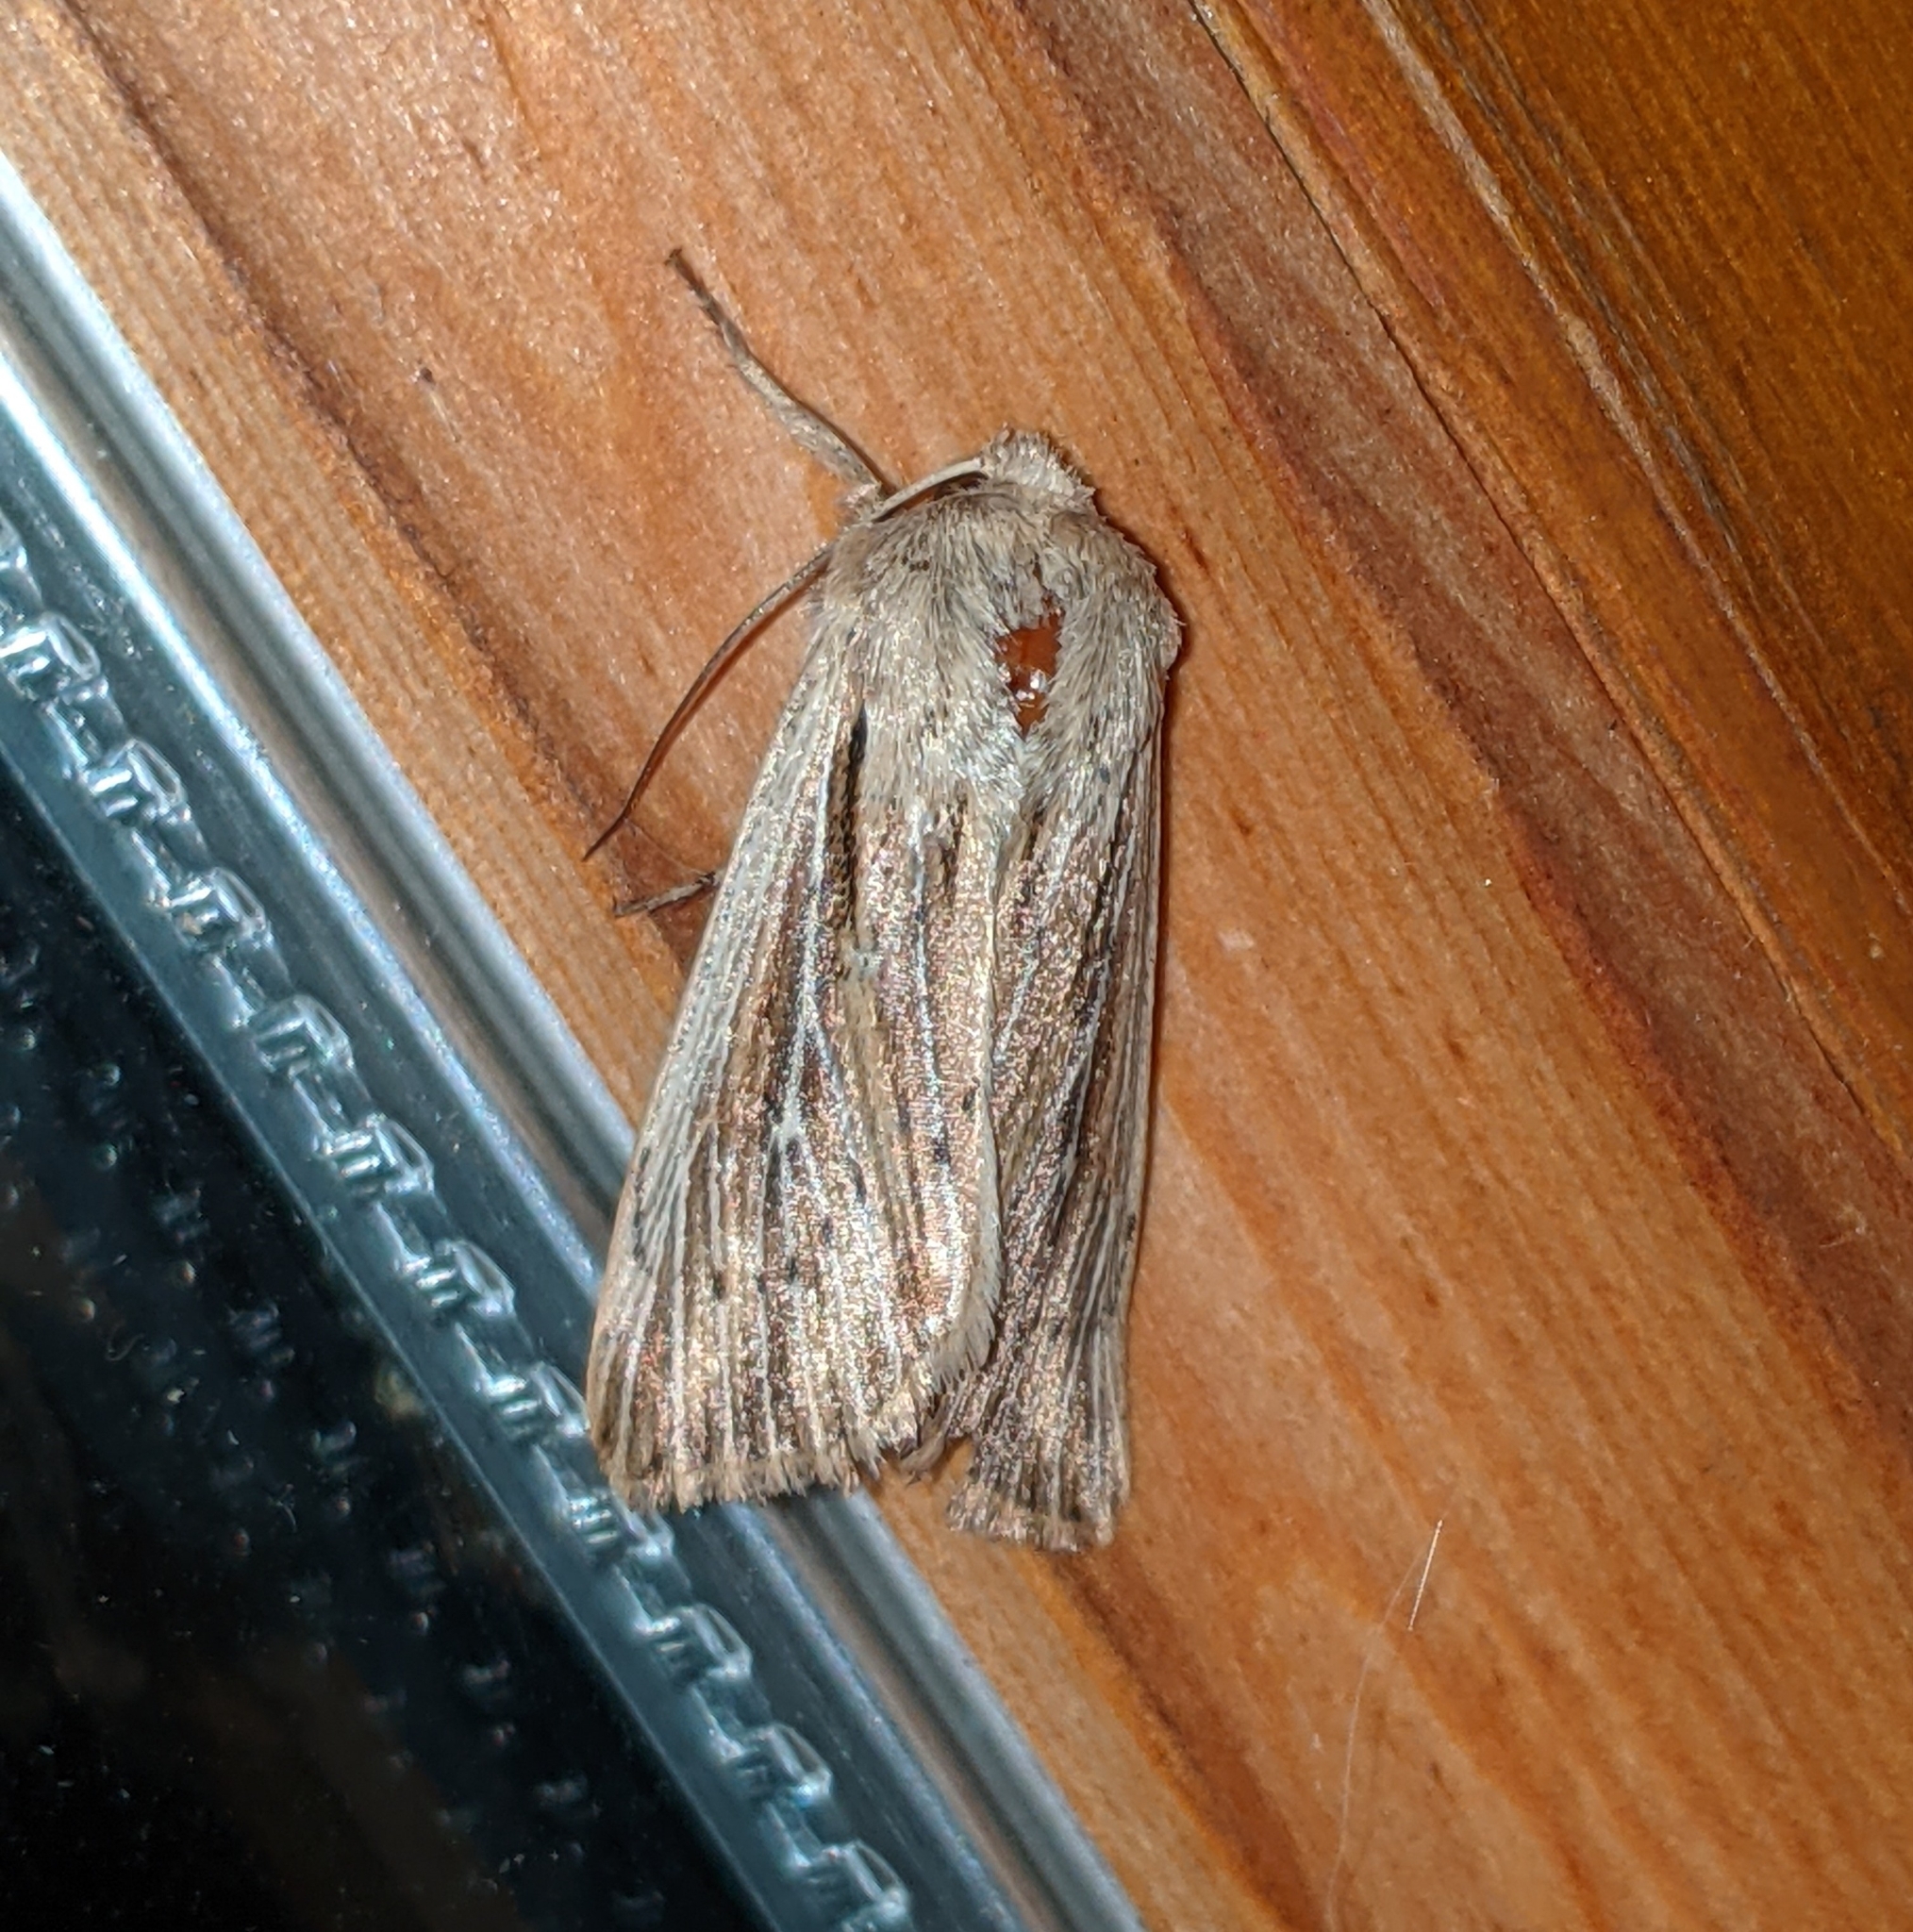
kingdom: Animalia
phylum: Arthropoda
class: Insecta
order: Lepidoptera
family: Noctuidae
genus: Leucania
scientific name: Leucania insueta
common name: Heterodox wainscot moth
